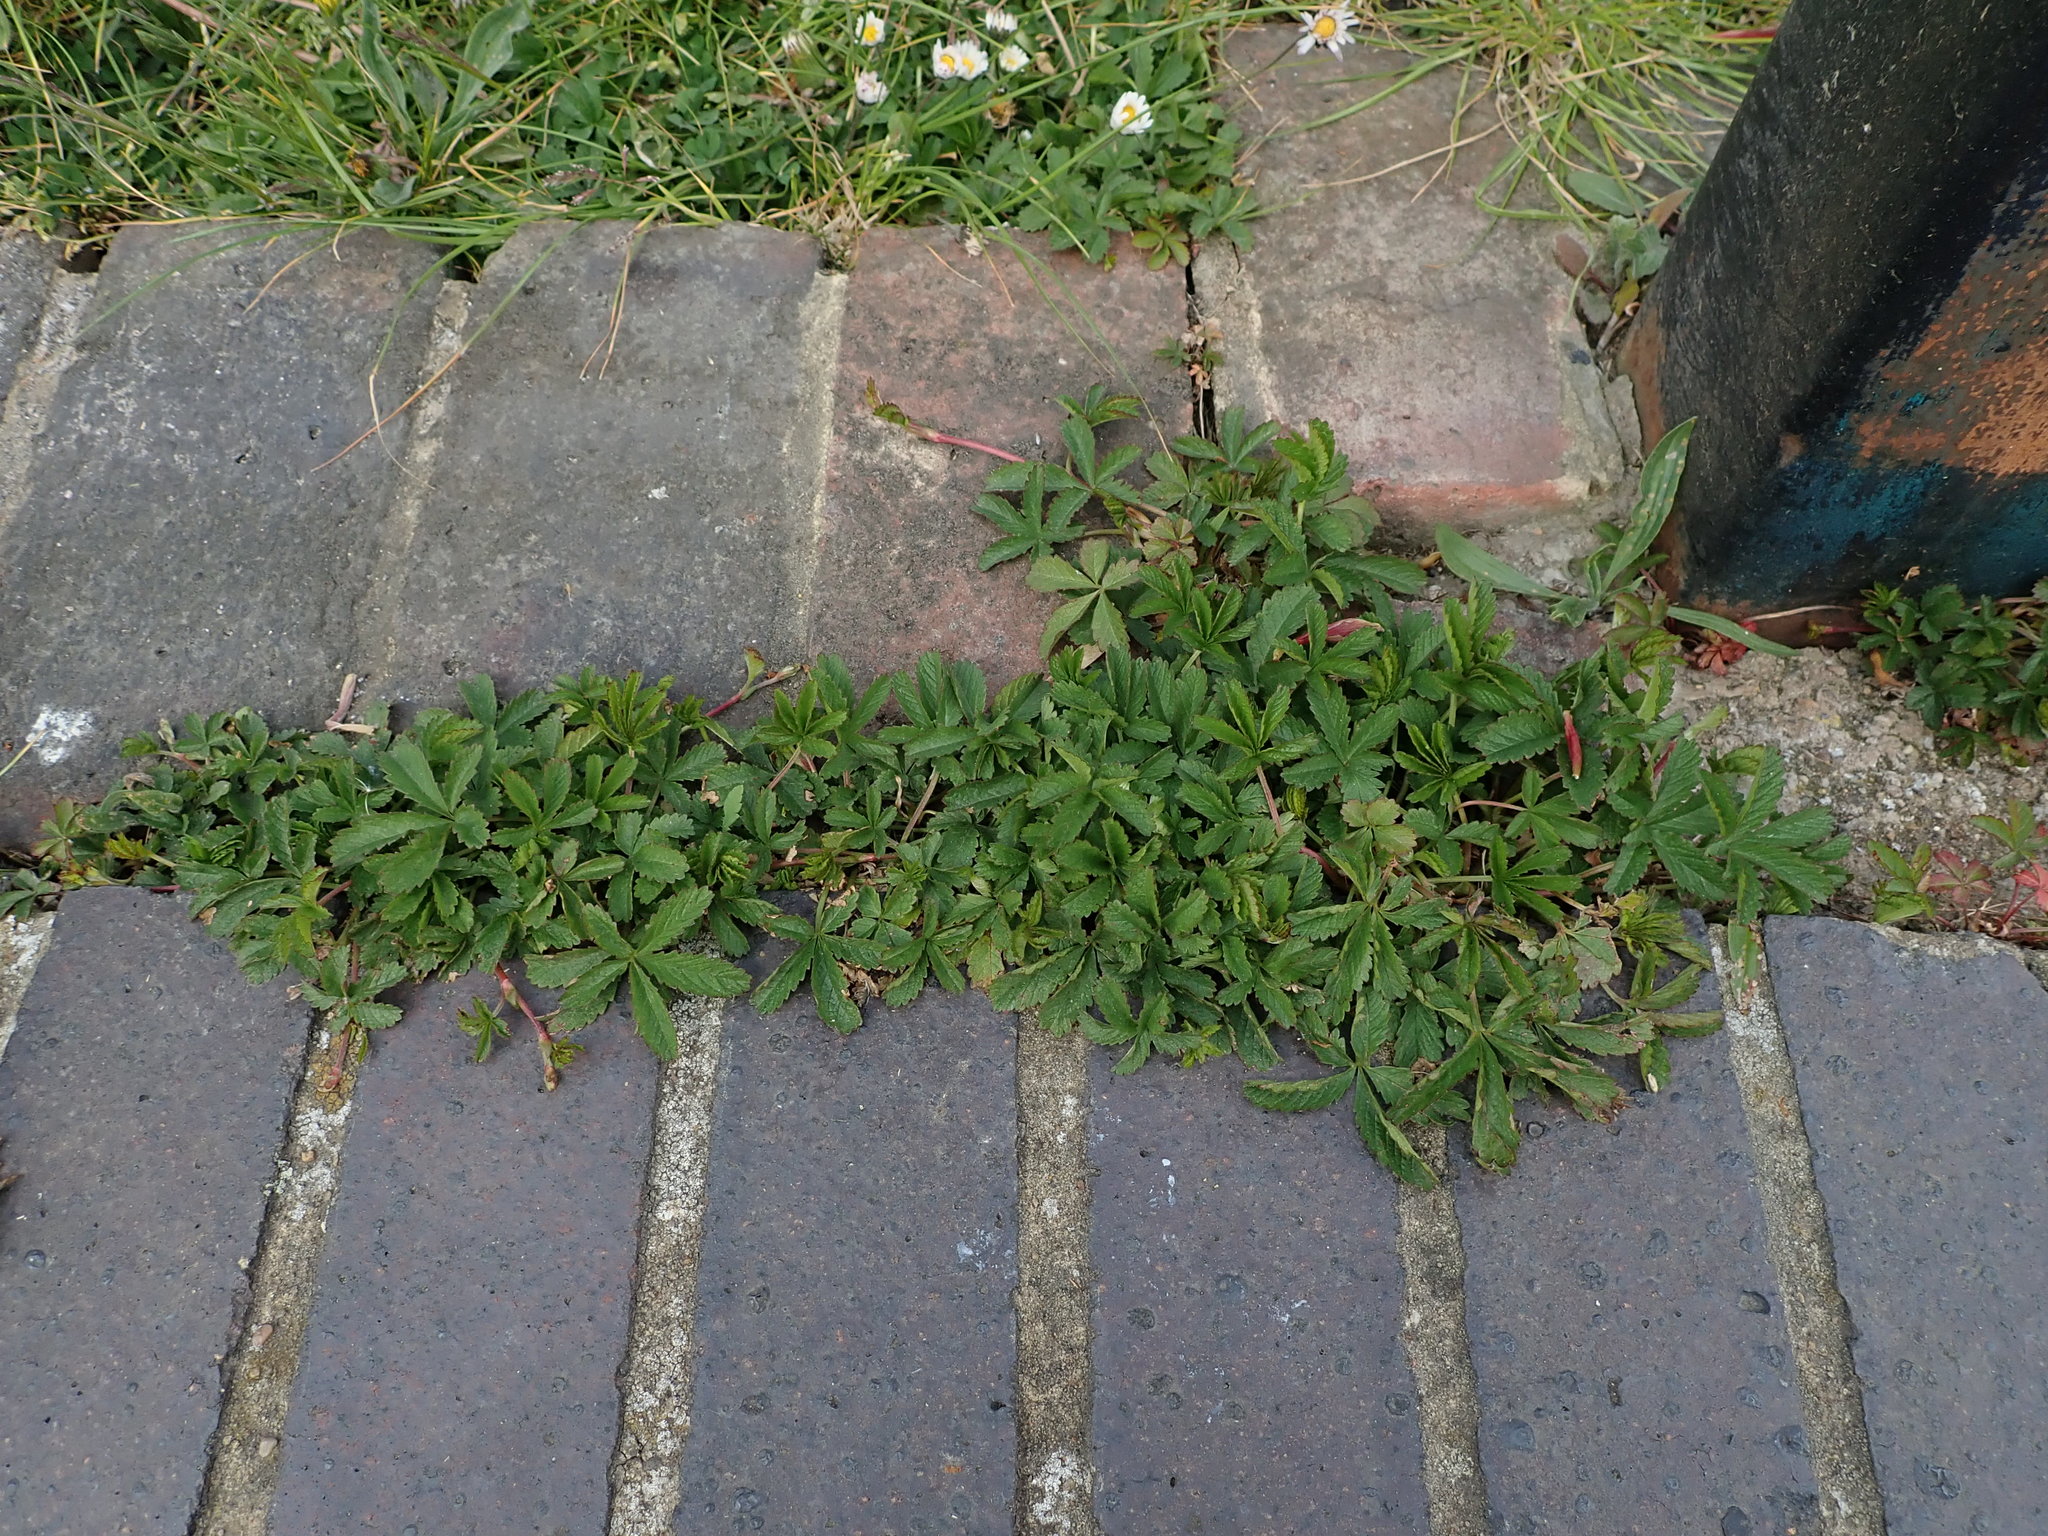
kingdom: Plantae
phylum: Tracheophyta
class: Magnoliopsida
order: Rosales
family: Rosaceae
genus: Potentilla
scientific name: Potentilla reptans
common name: Creeping cinquefoil
